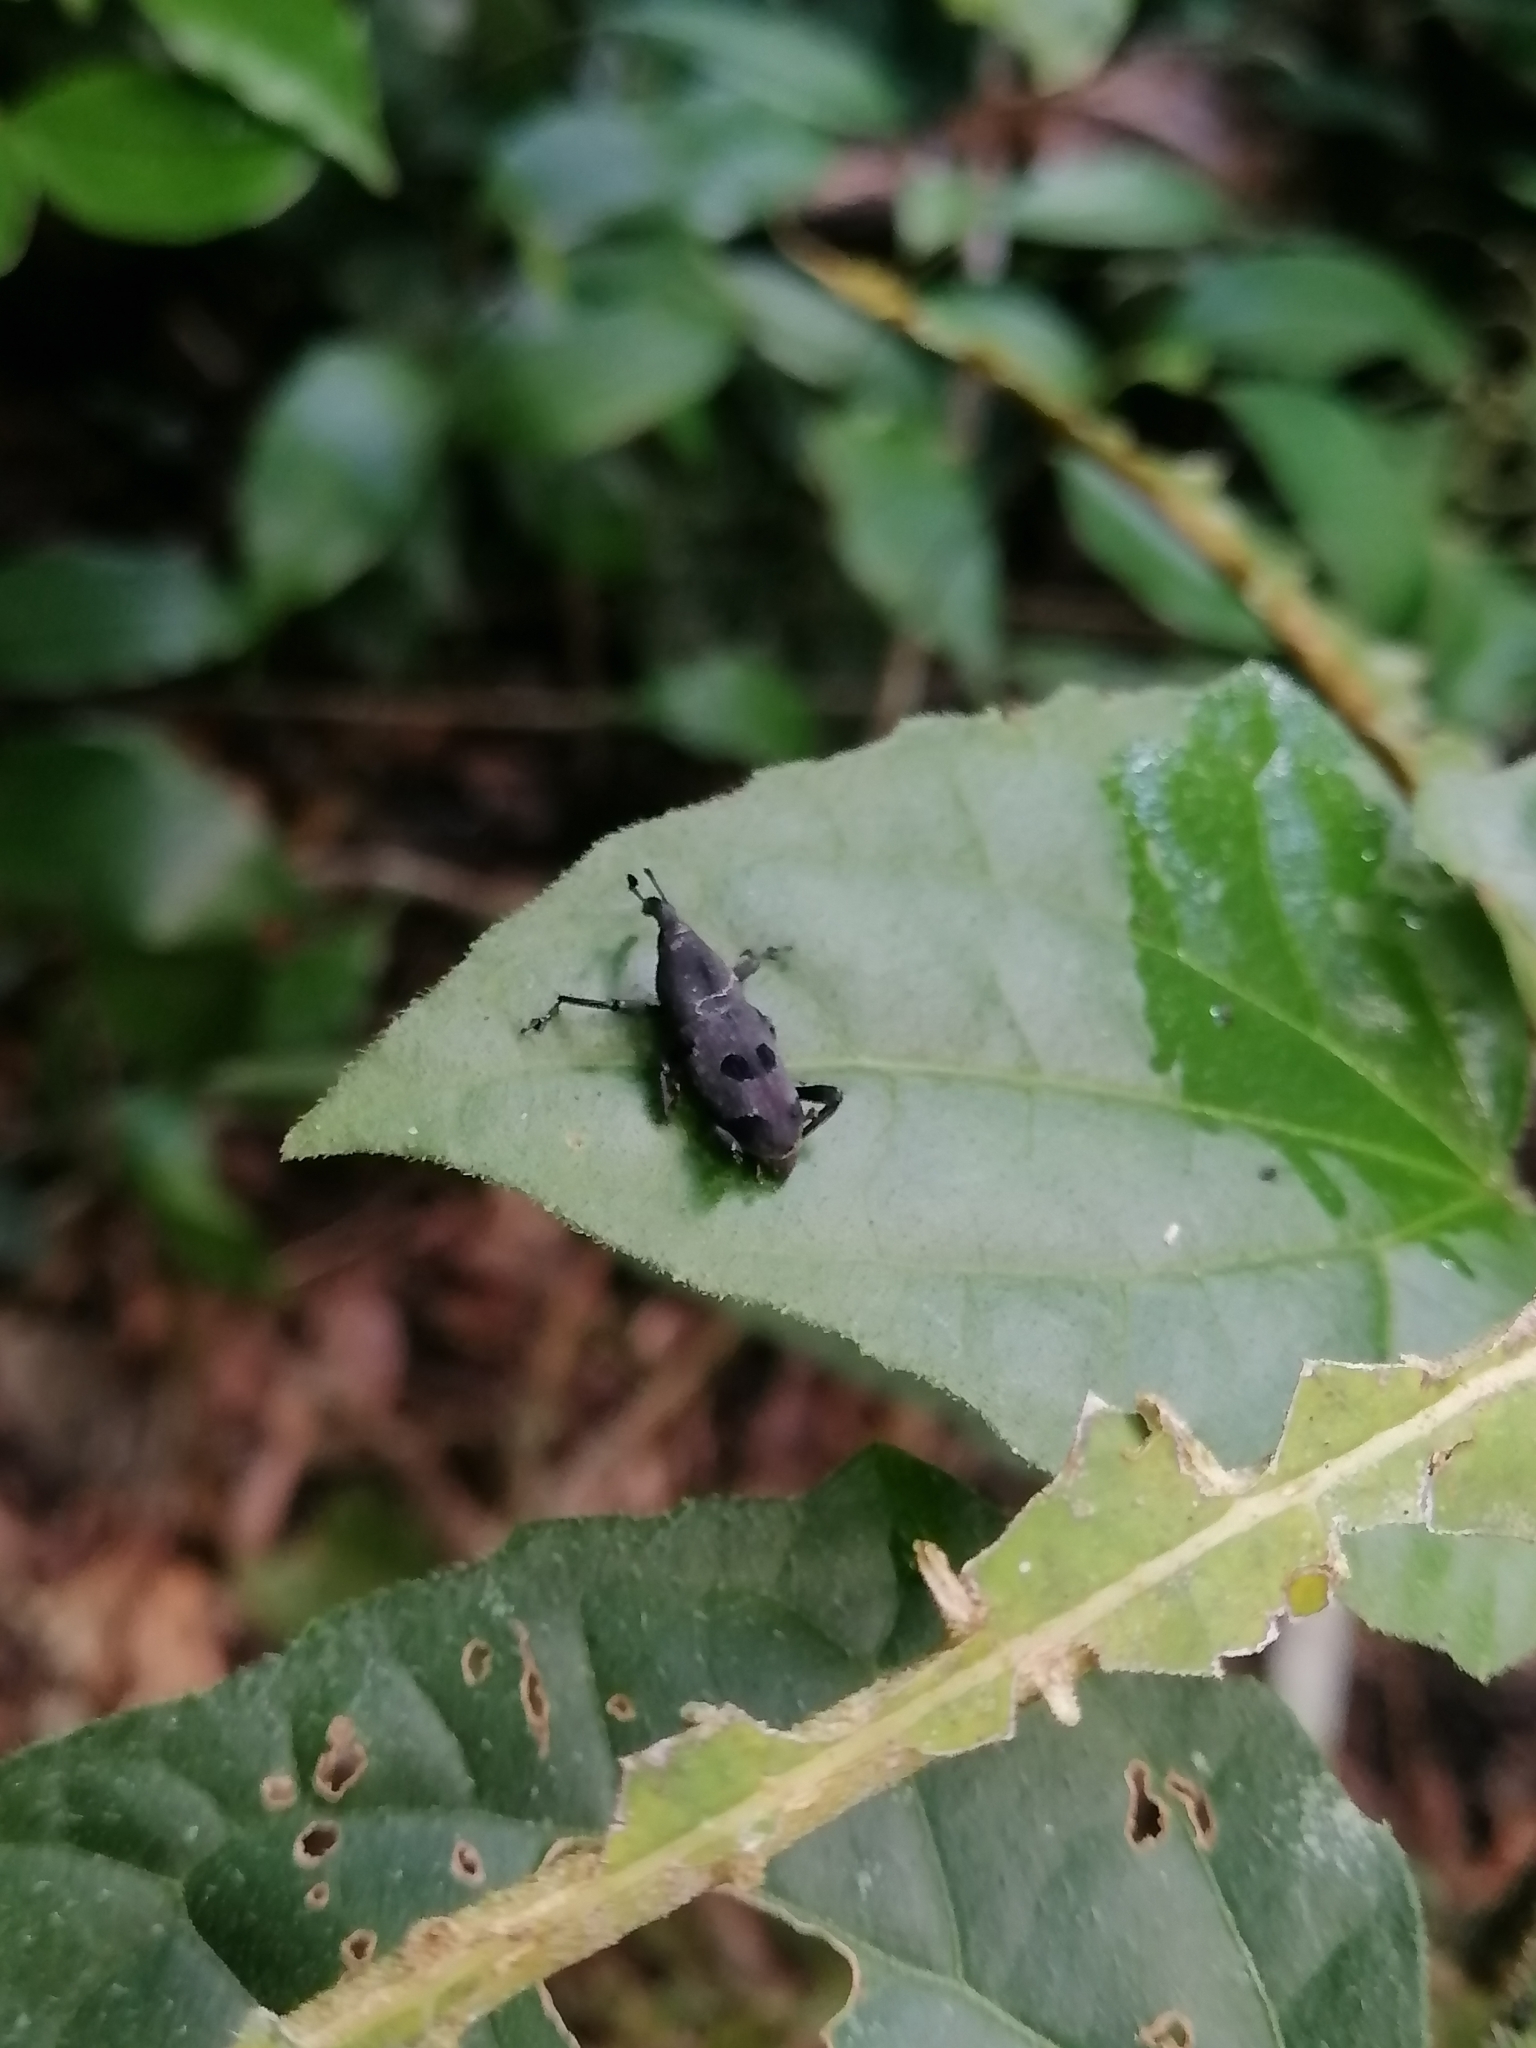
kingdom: Animalia
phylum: Arthropoda
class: Insecta
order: Coleoptera
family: Dryophthoridae
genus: Rhodobaenus
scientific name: Rhodobaenus stigmaticus
